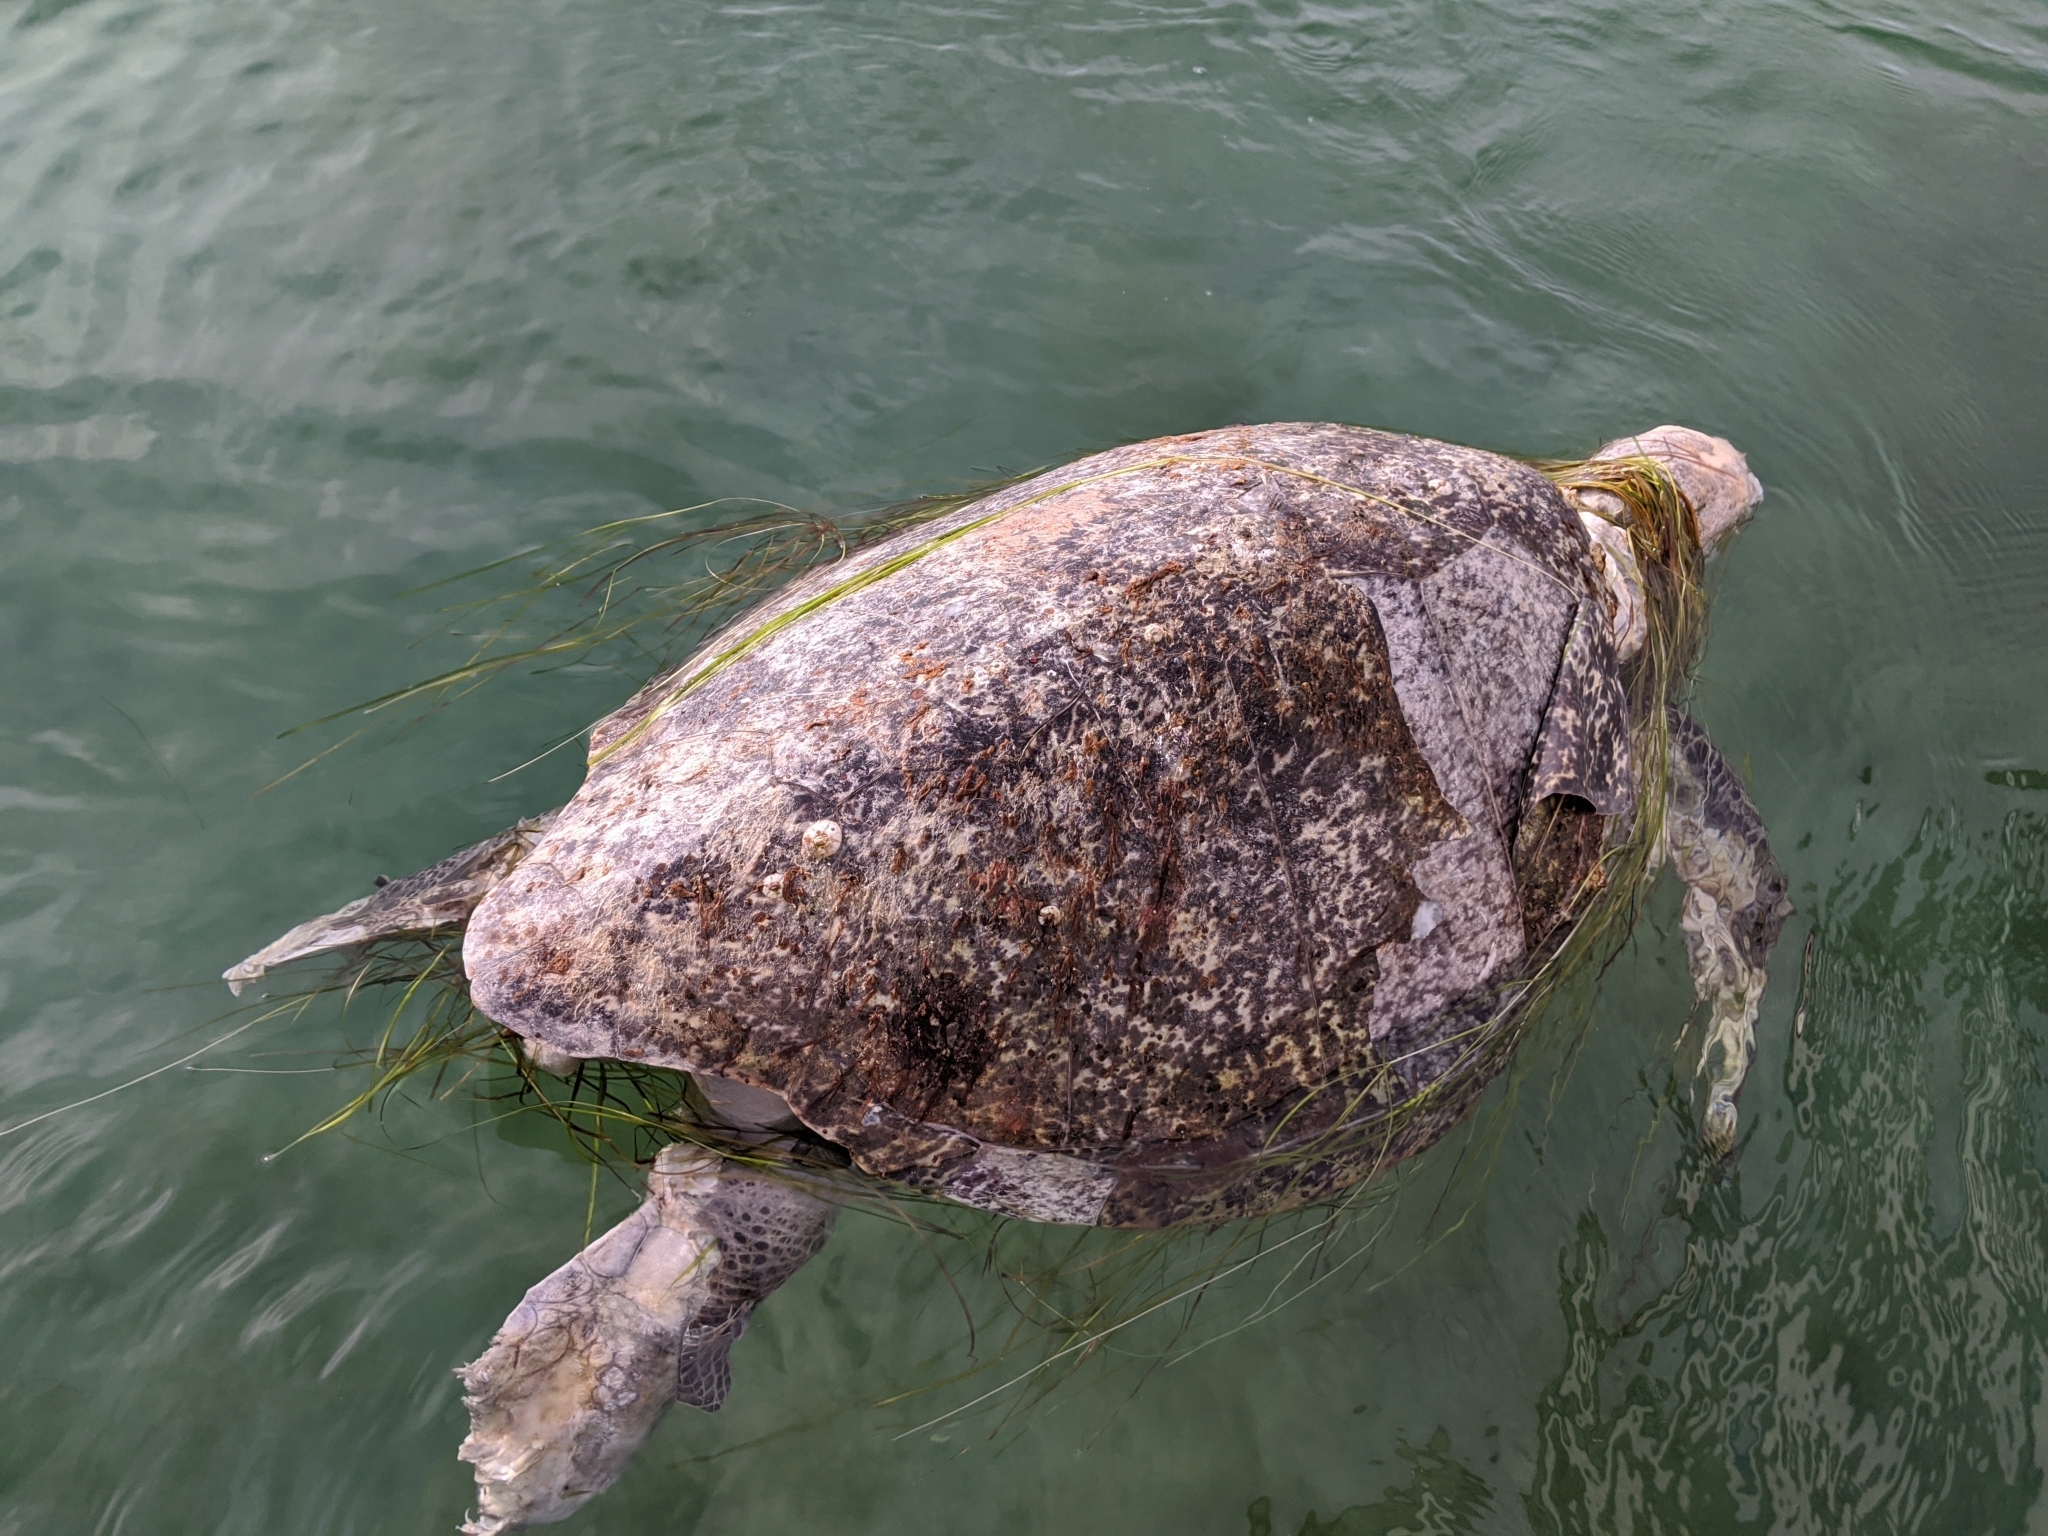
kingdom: Animalia
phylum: Chordata
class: Testudines
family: Cheloniidae
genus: Chelonia
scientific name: Chelonia mydas
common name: Green turtle
